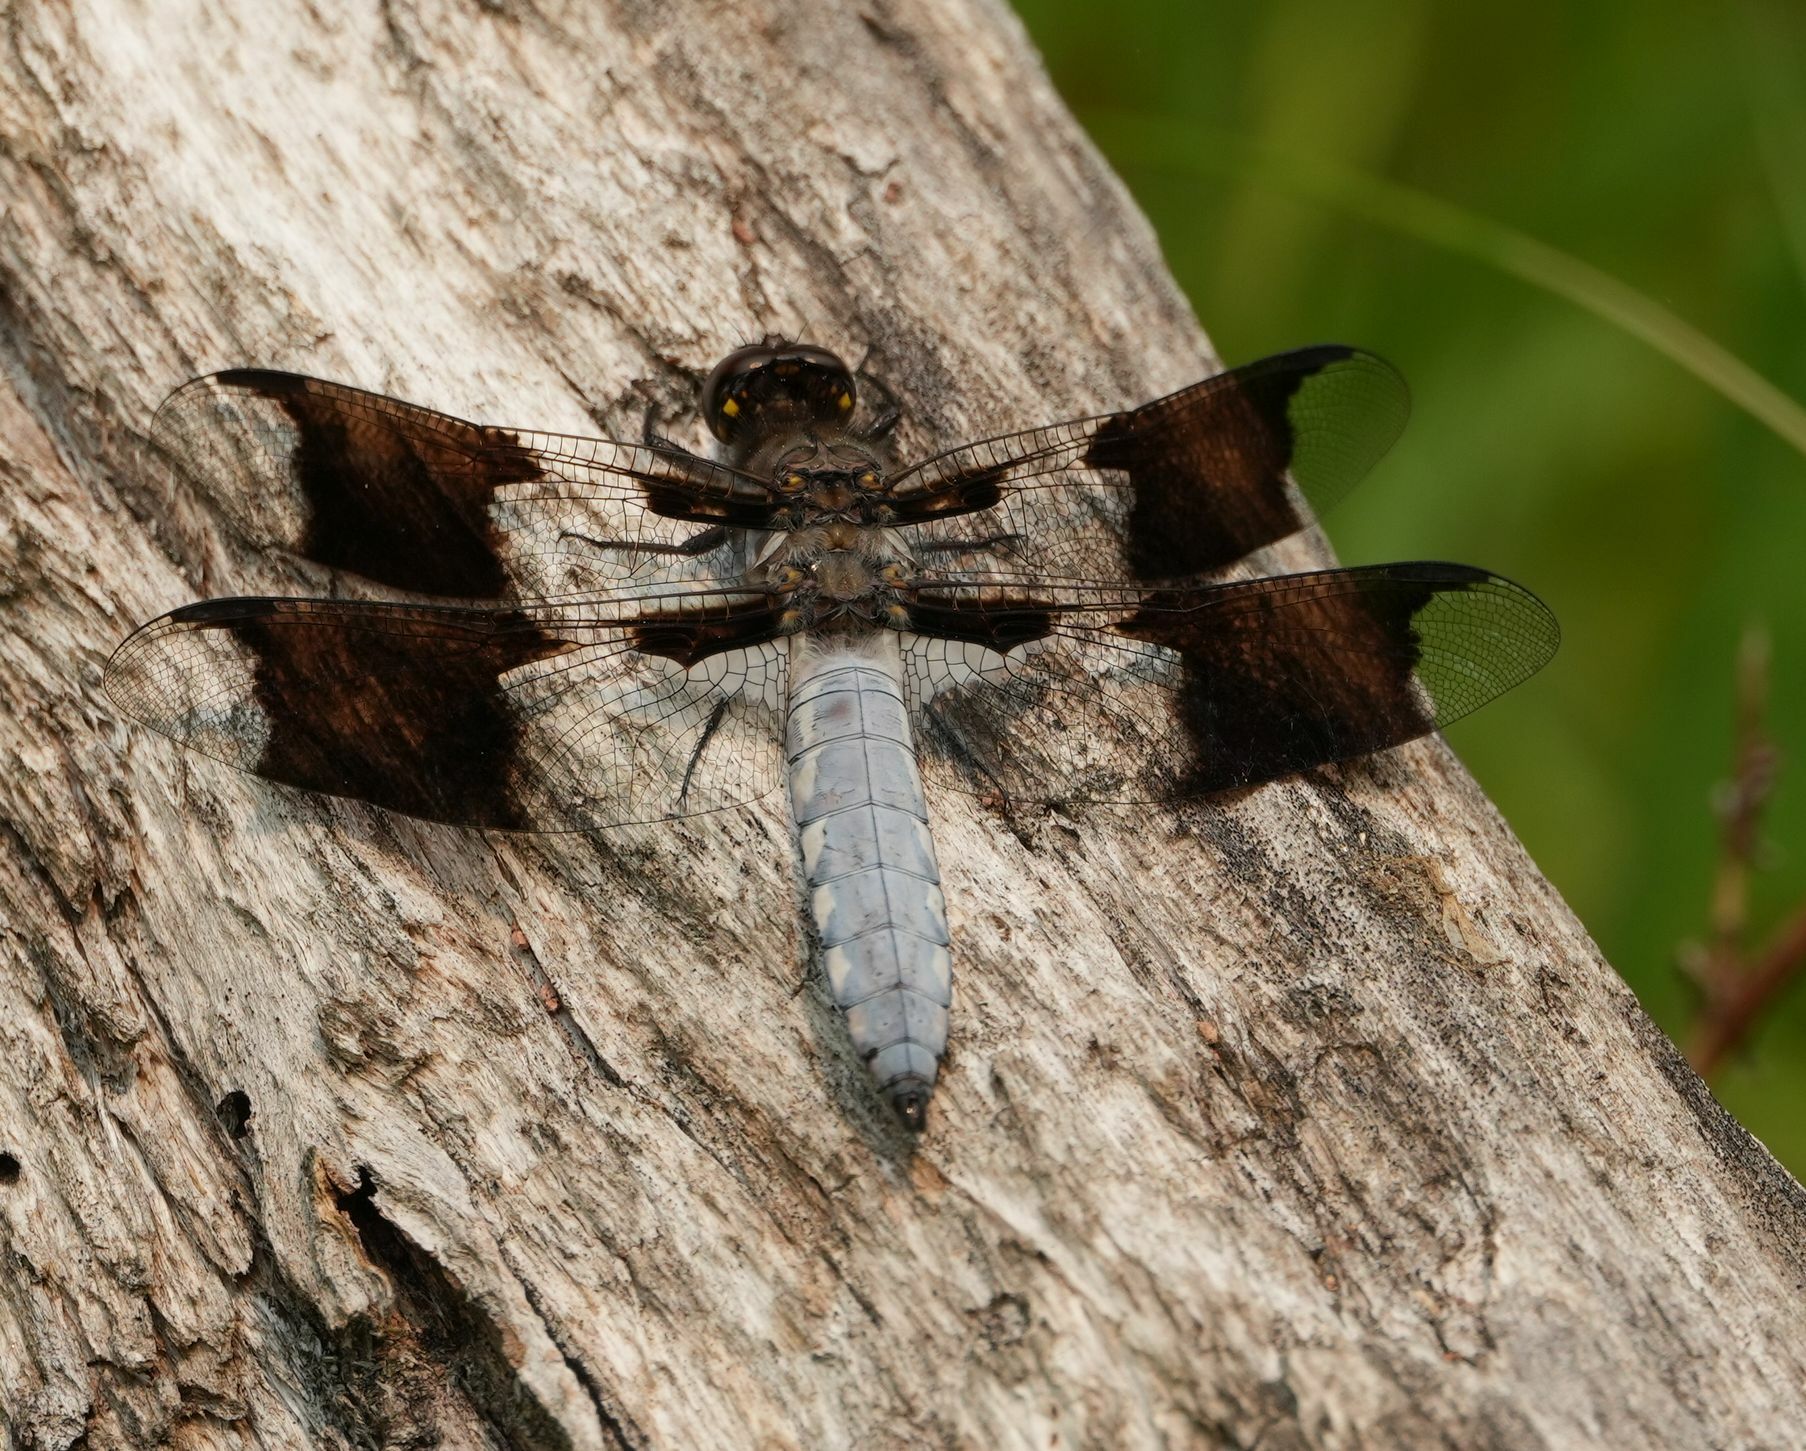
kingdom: Animalia
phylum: Arthropoda
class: Insecta
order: Odonata
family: Libellulidae
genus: Plathemis
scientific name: Plathemis lydia
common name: Common whitetail
